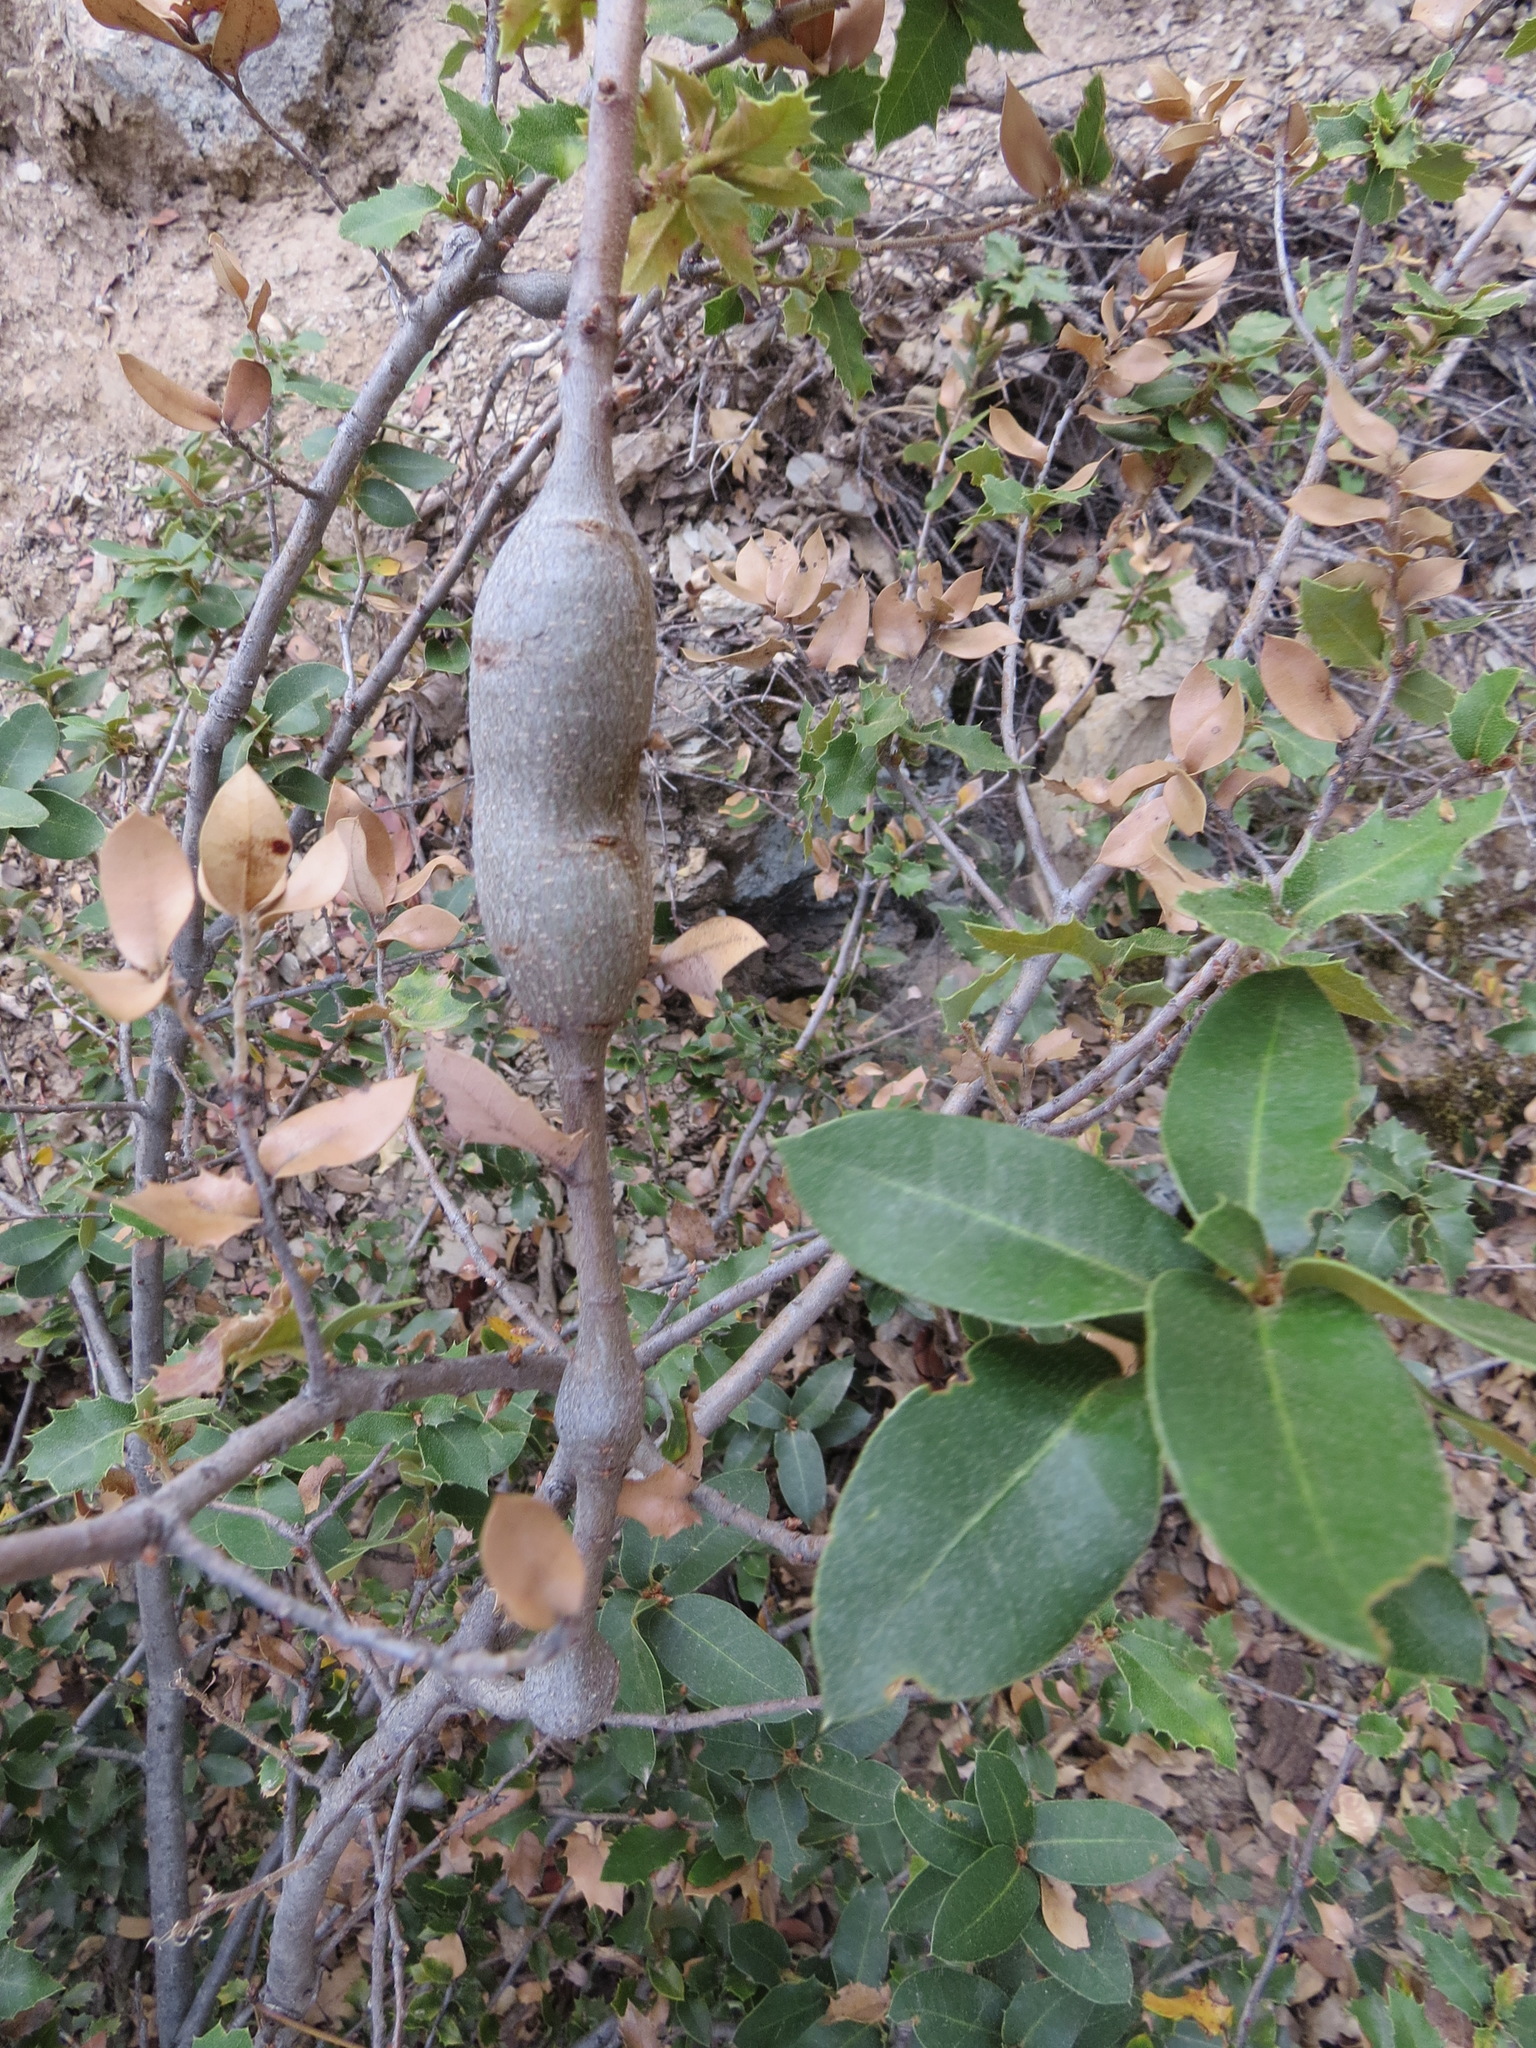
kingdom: Animalia
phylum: Arthropoda
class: Insecta
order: Hymenoptera
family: Cynipidae
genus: Disholcaspis
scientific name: Disholcaspis spectabilis
